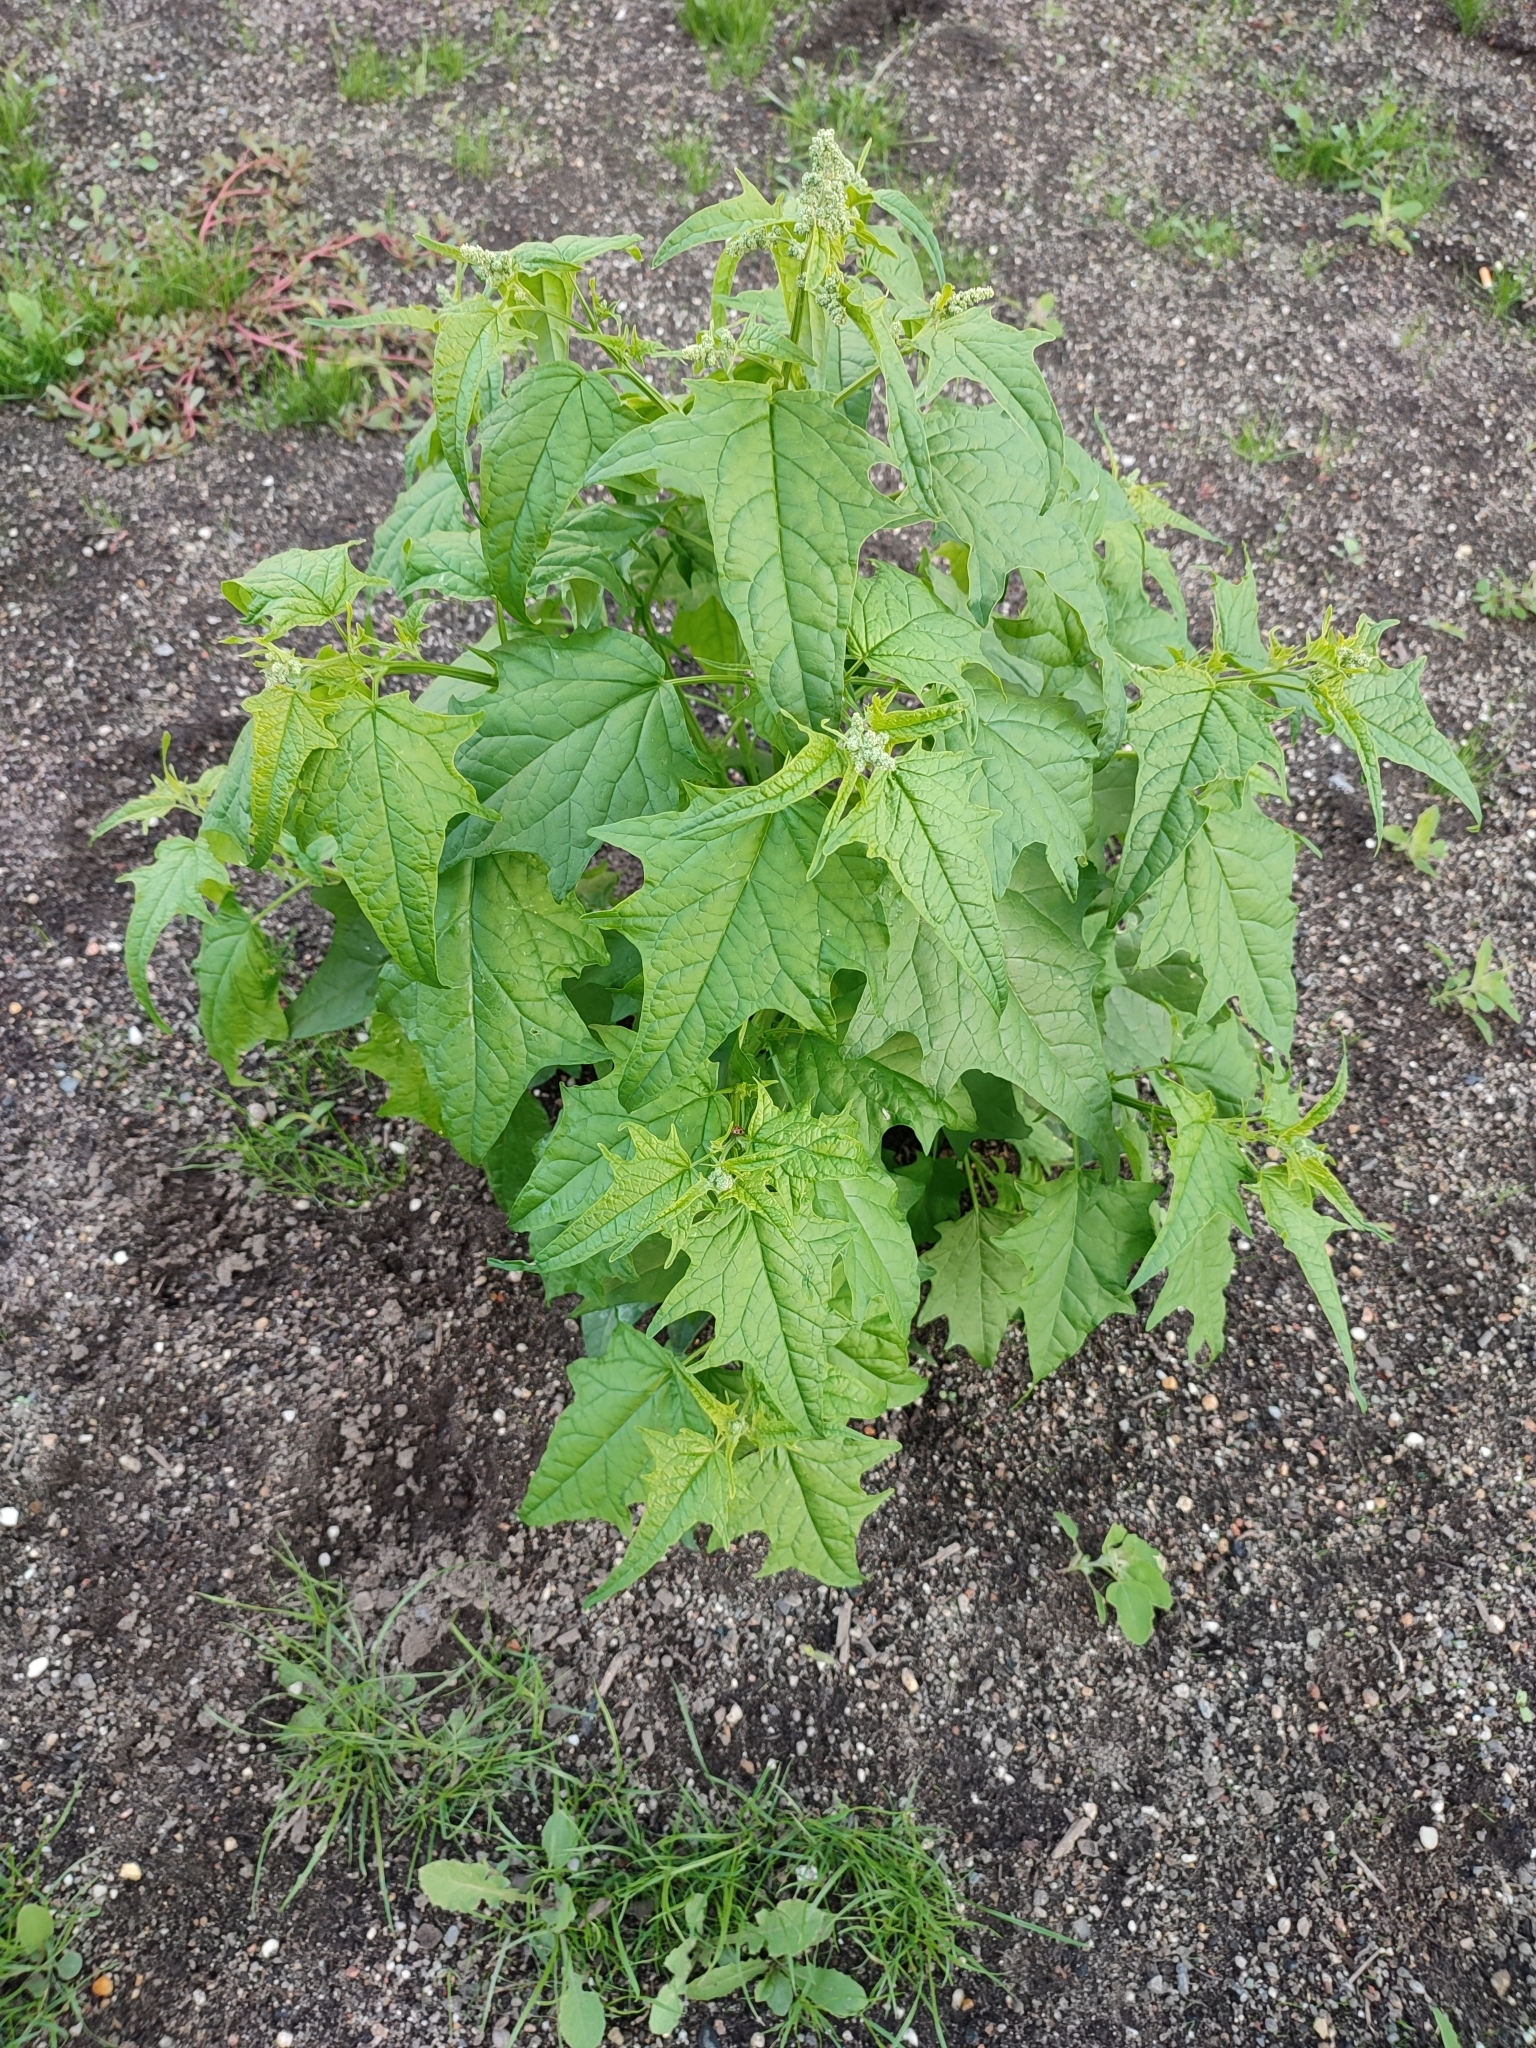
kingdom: Plantae
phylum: Tracheophyta
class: Magnoliopsida
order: Caryophyllales
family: Amaranthaceae
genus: Chenopodiastrum
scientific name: Chenopodiastrum hybridum
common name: Mapleleaf goosefoot
